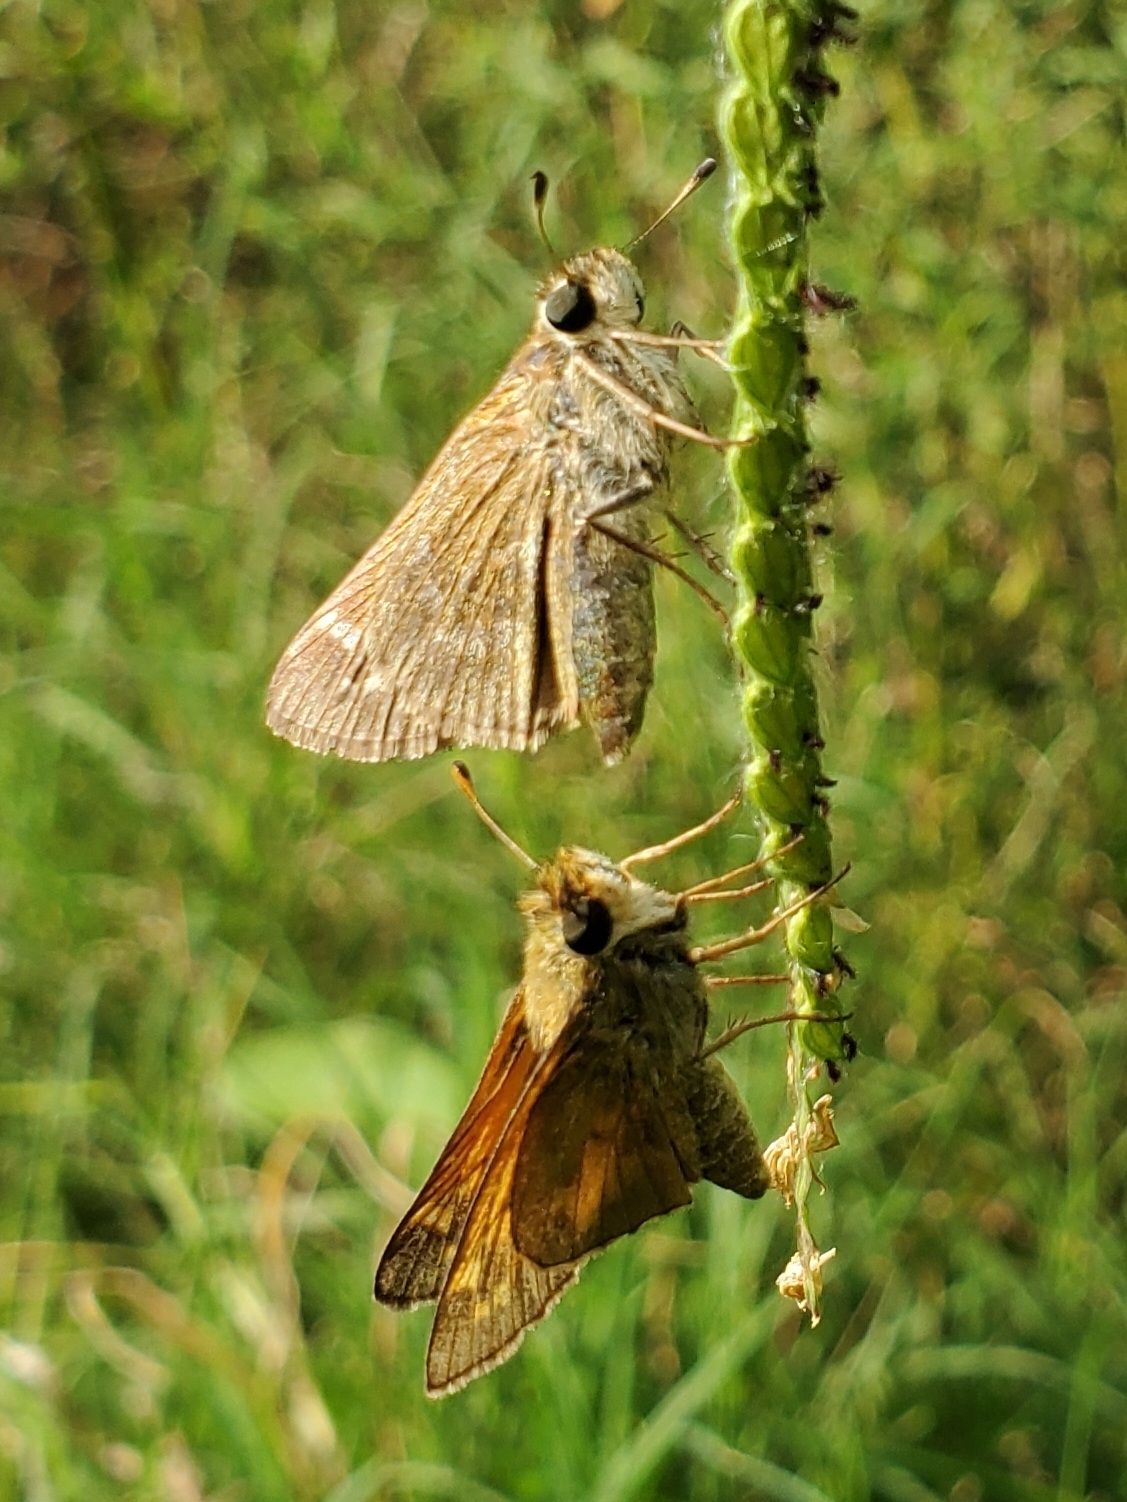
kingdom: Animalia
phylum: Arthropoda
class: Insecta
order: Lepidoptera
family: Hesperiidae
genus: Atalopedes
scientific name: Atalopedes
